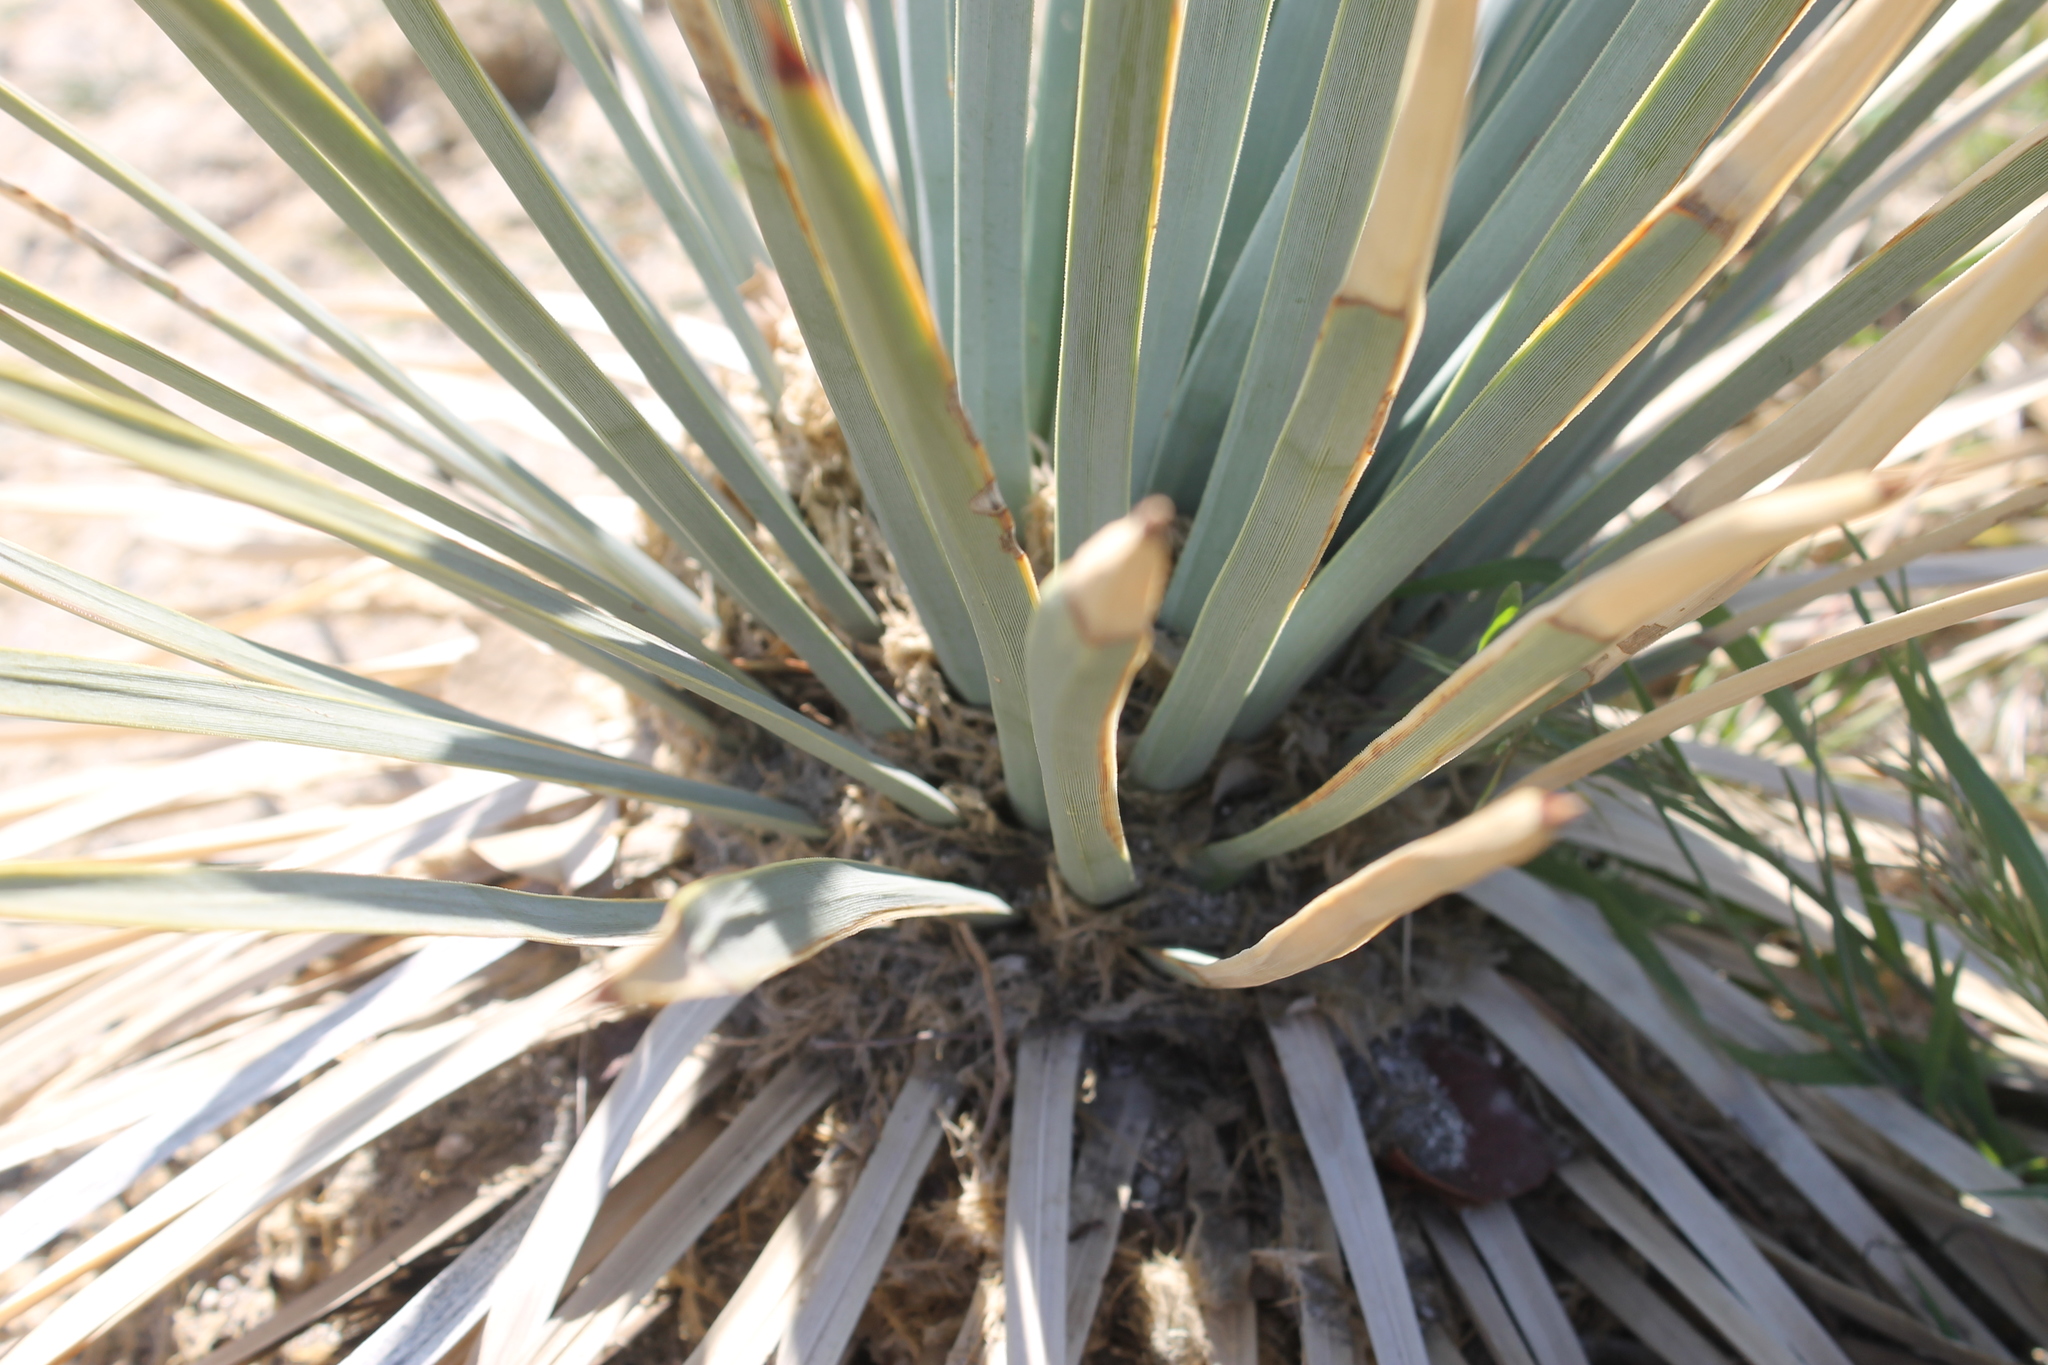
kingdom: Plantae
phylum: Tracheophyta
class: Liliopsida
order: Asparagales
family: Asparagaceae
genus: Hesperoyucca
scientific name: Hesperoyucca whipplei
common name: Our lord's-candle
